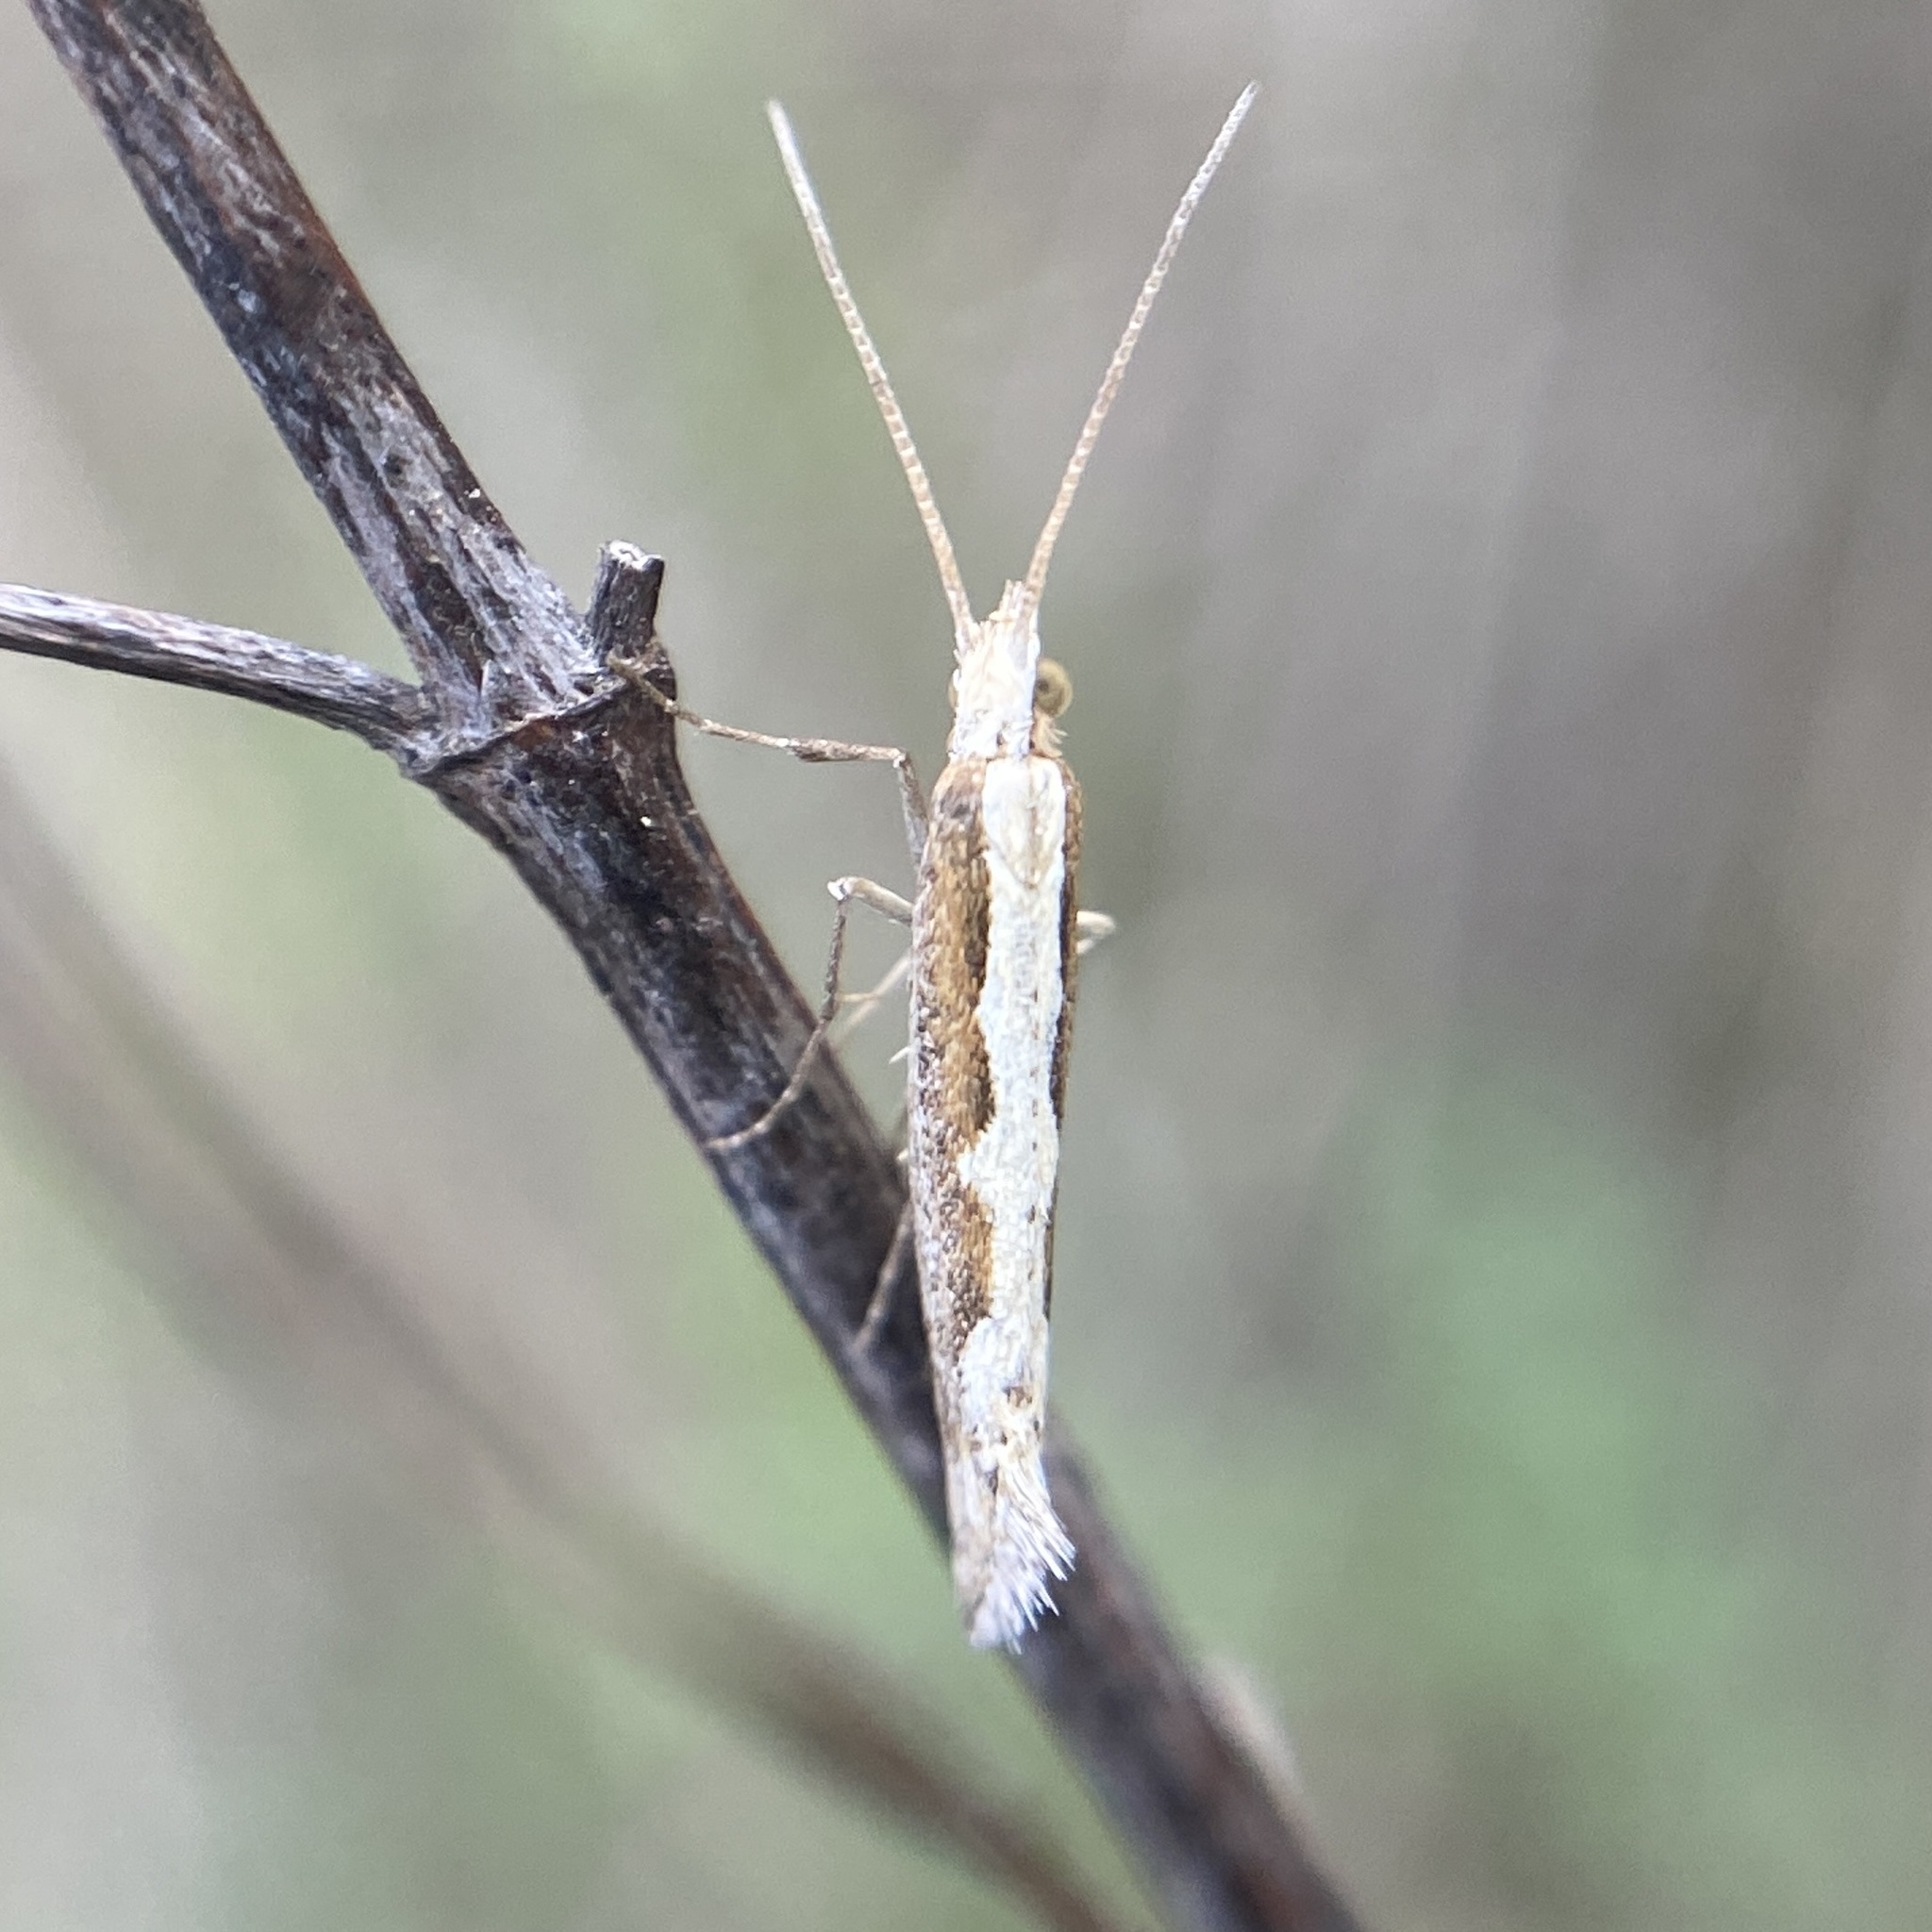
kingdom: Animalia
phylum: Arthropoda
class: Insecta
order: Lepidoptera
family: Plutellidae
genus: Plutella
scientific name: Plutella xylostella
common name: Diamond-back moth
